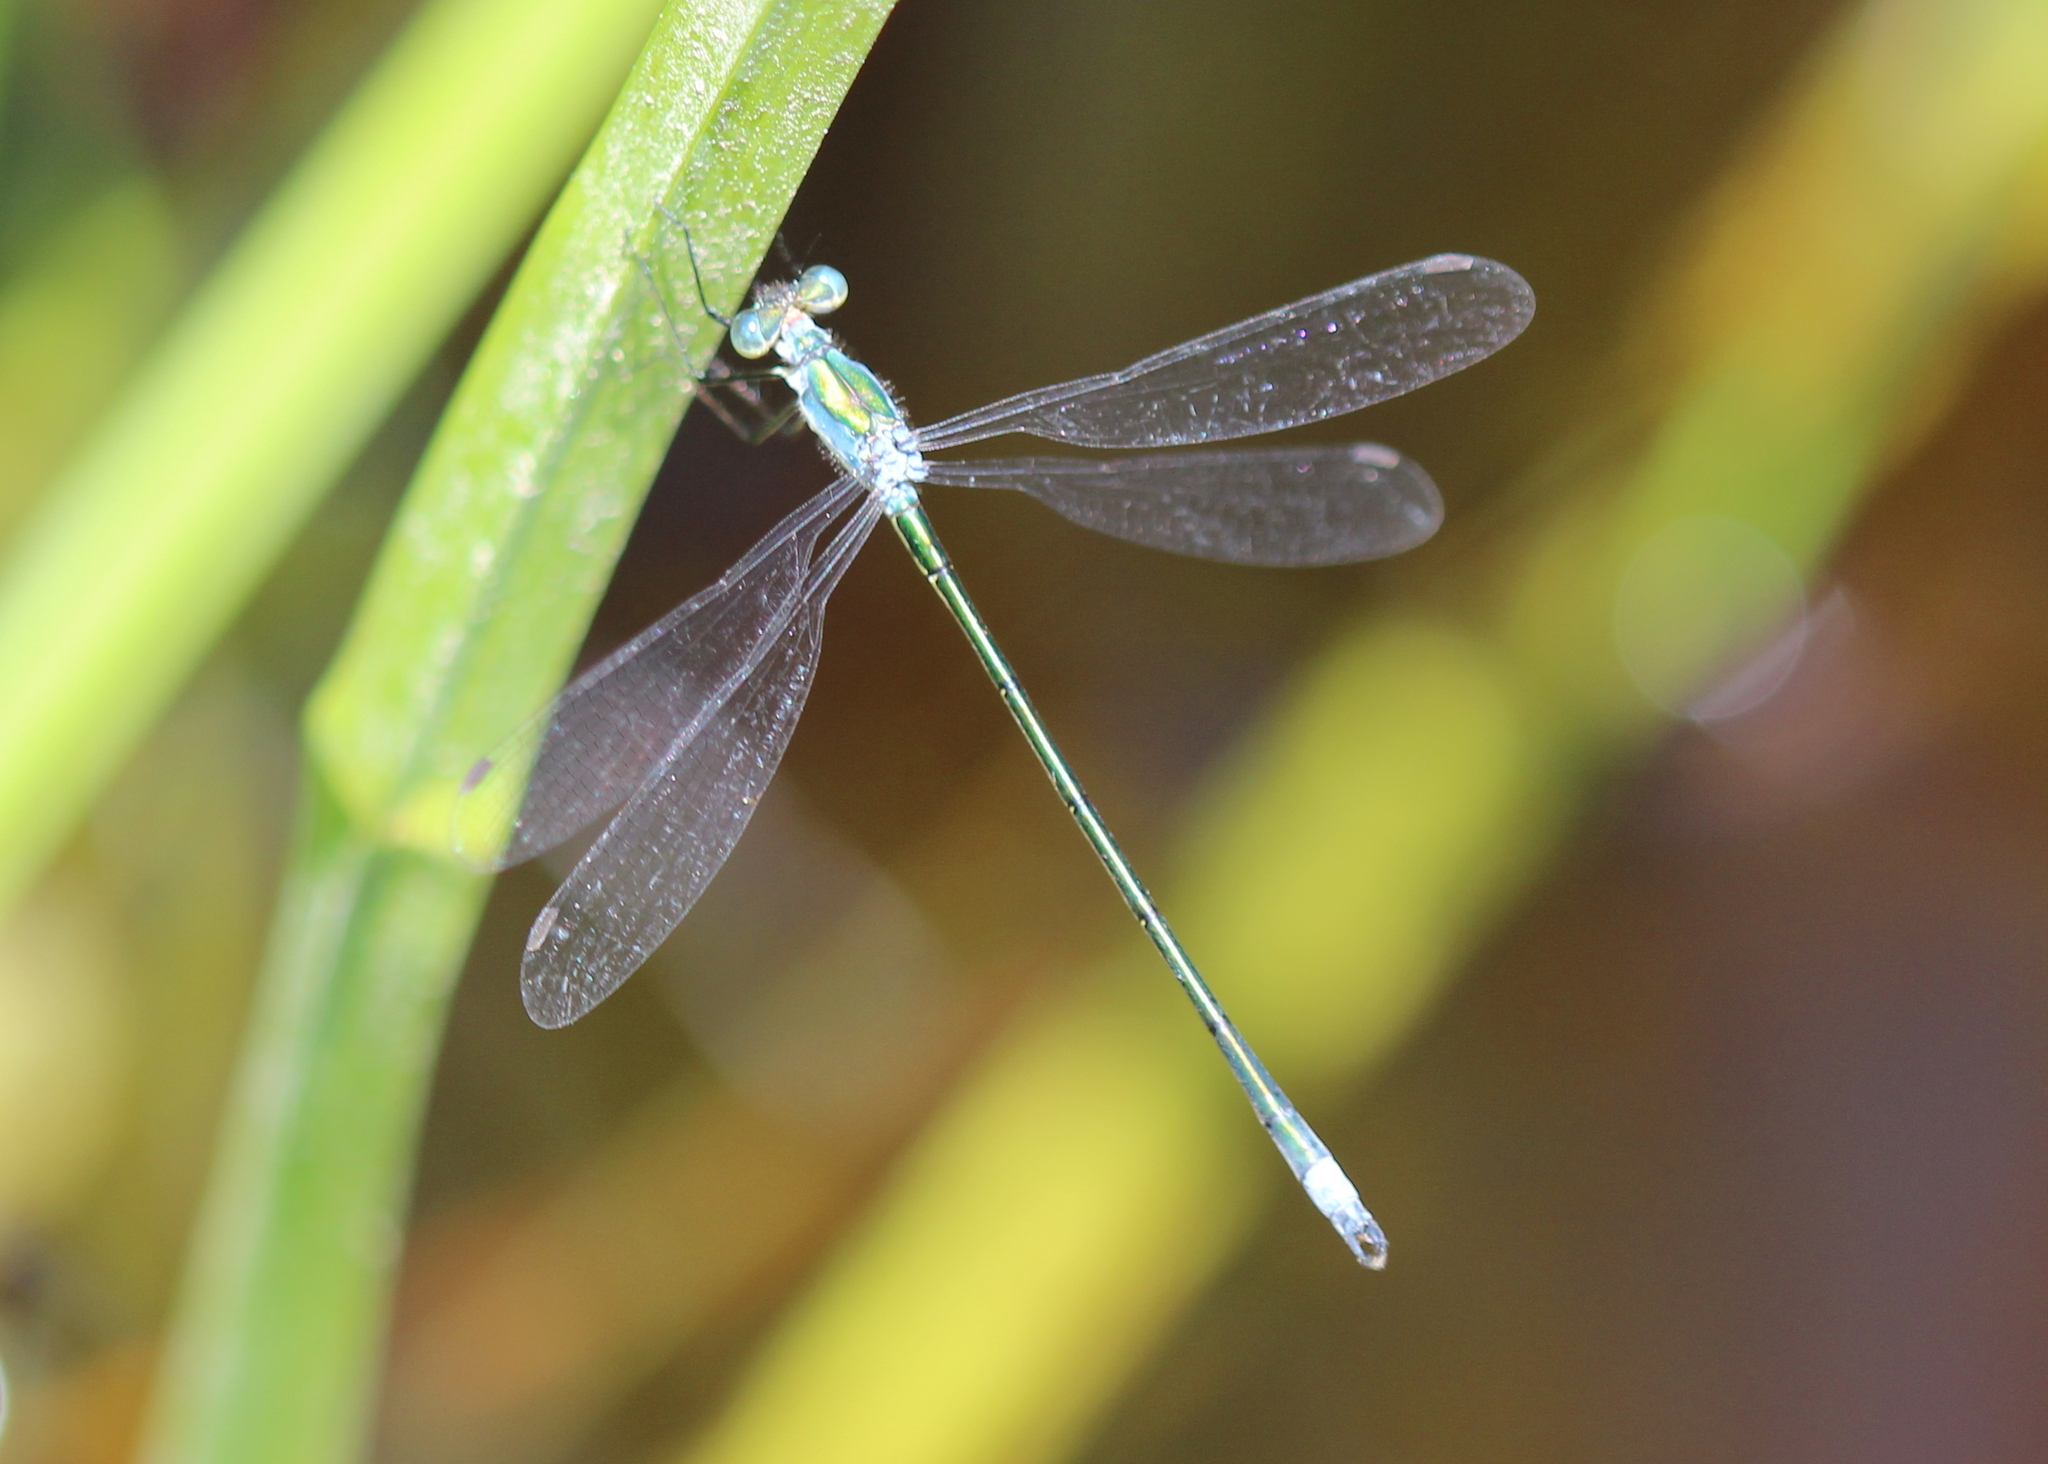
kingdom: Animalia
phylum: Arthropoda
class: Insecta
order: Odonata
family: Lestidae
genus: Lestes
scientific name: Lestes inaequalis
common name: Elegant spreadwing
